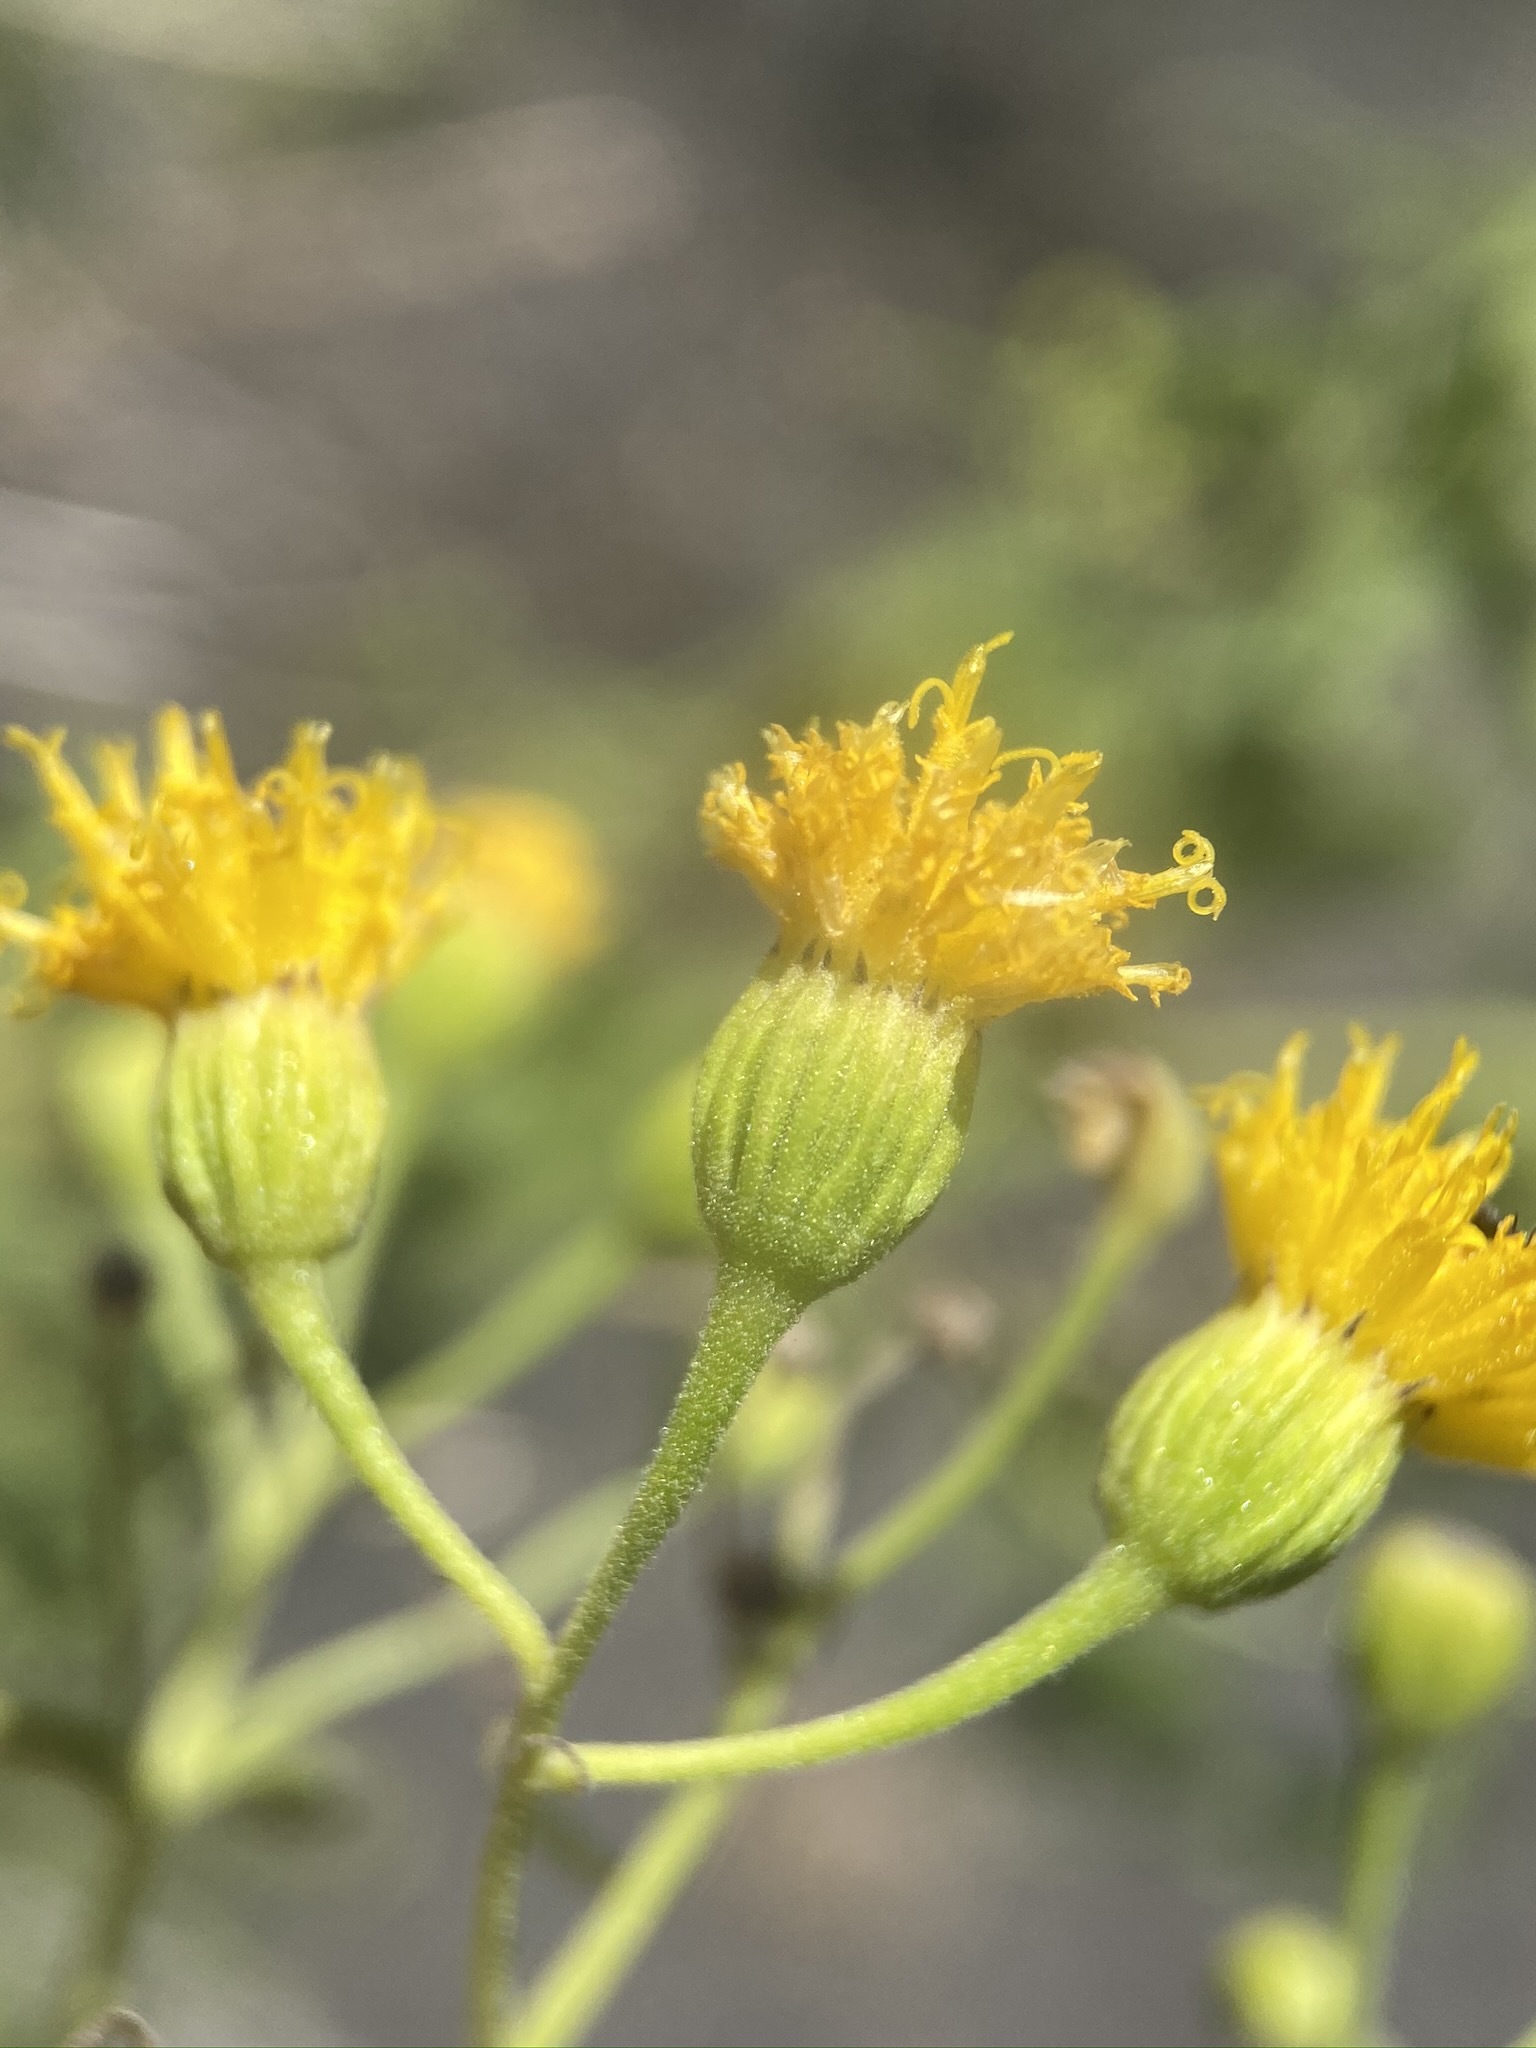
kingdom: Plantae
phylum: Tracheophyta
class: Magnoliopsida
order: Asterales
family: Asteraceae
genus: Pericome
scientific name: Pericome caudata
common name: Taperleaf
